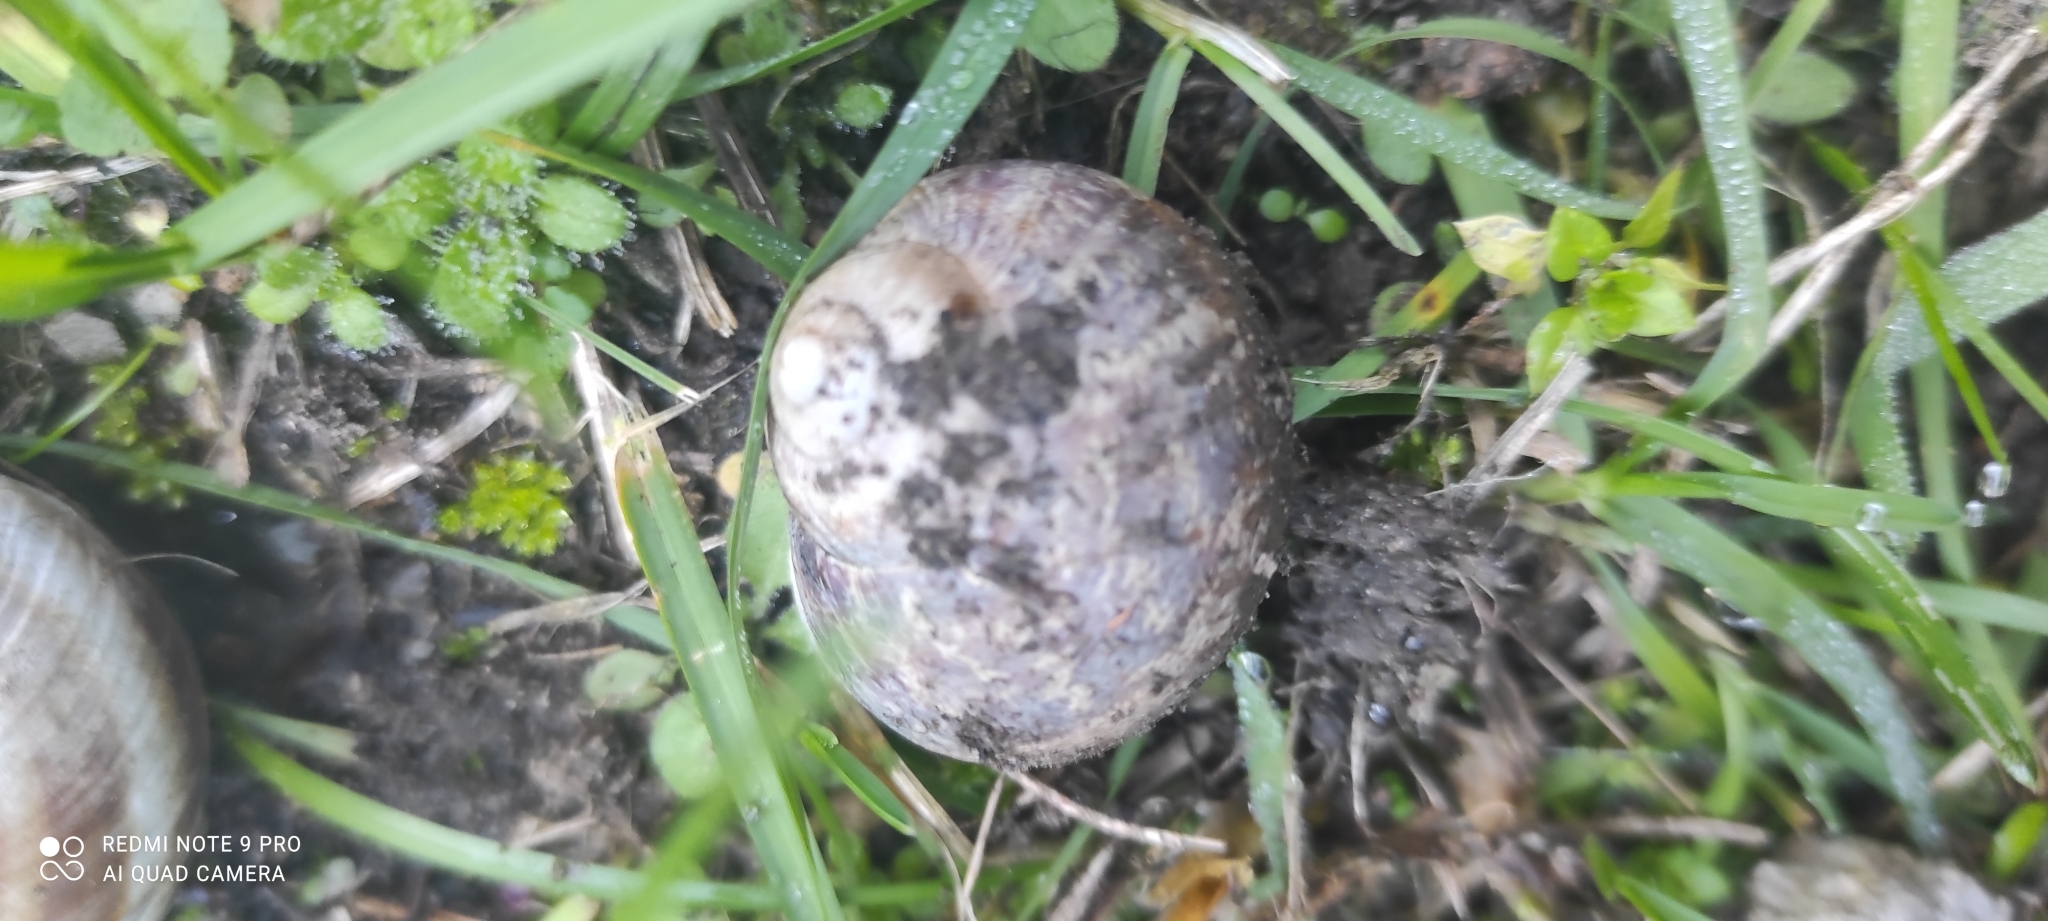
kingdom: Animalia
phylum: Mollusca
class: Gastropoda
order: Stylommatophora
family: Helicidae
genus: Cornu
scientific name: Cornu aspersum
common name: Brown garden snail
